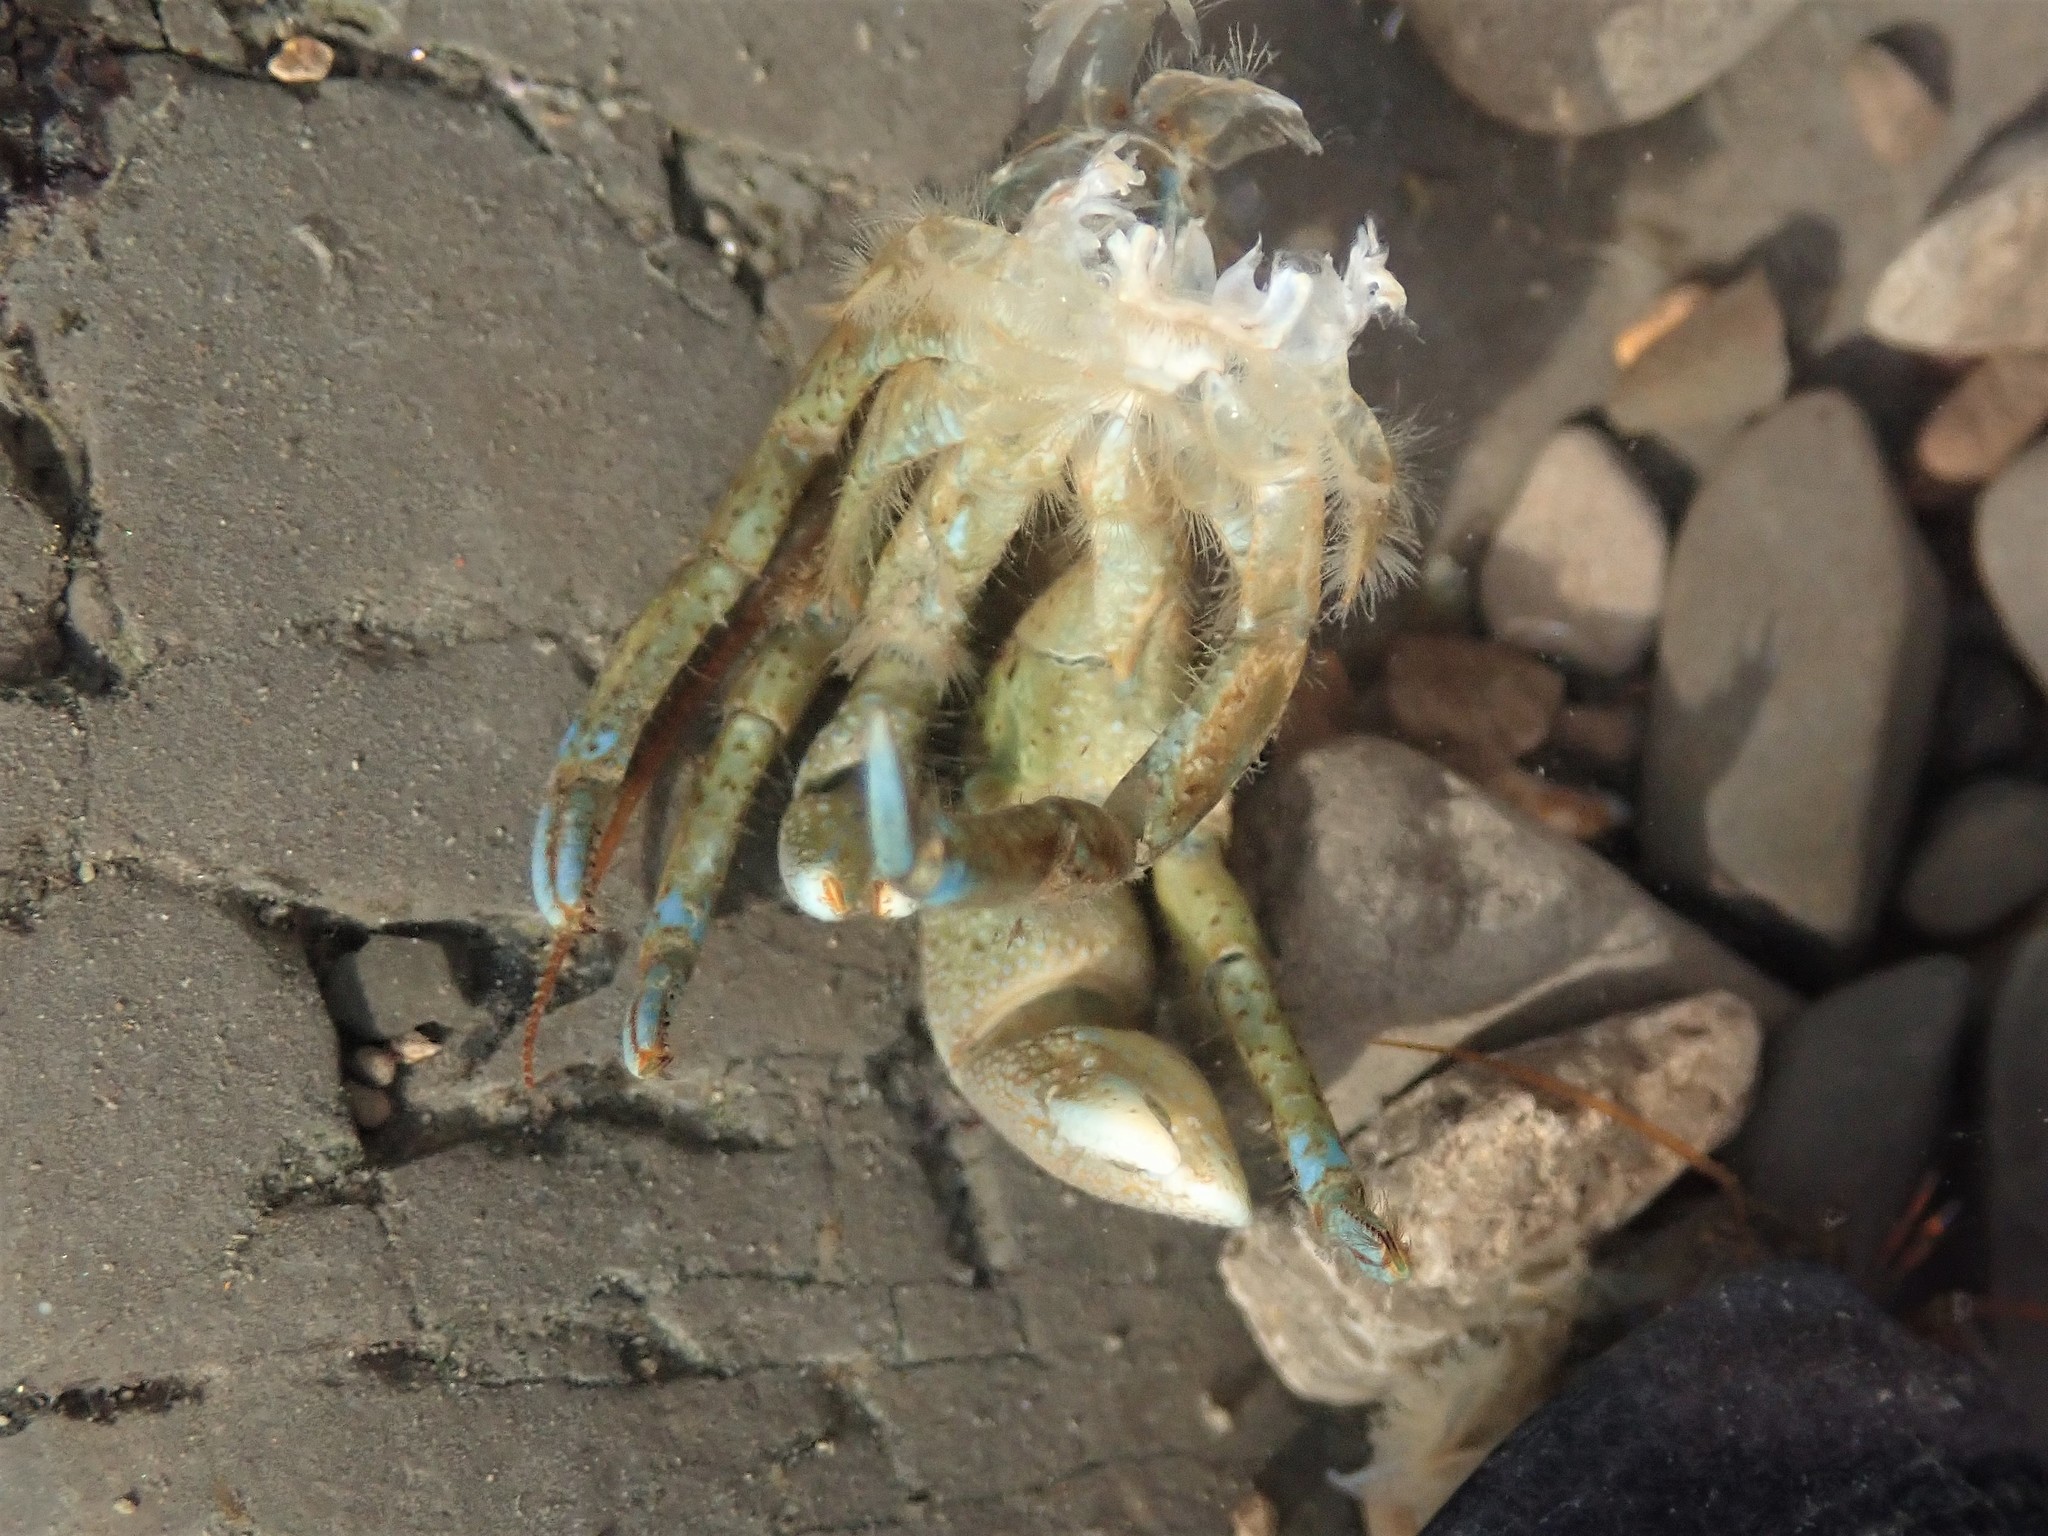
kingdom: Animalia
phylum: Arthropoda
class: Malacostraca
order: Decapoda
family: Paguridae
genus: Pagurus
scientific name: Pagurus samuelis
